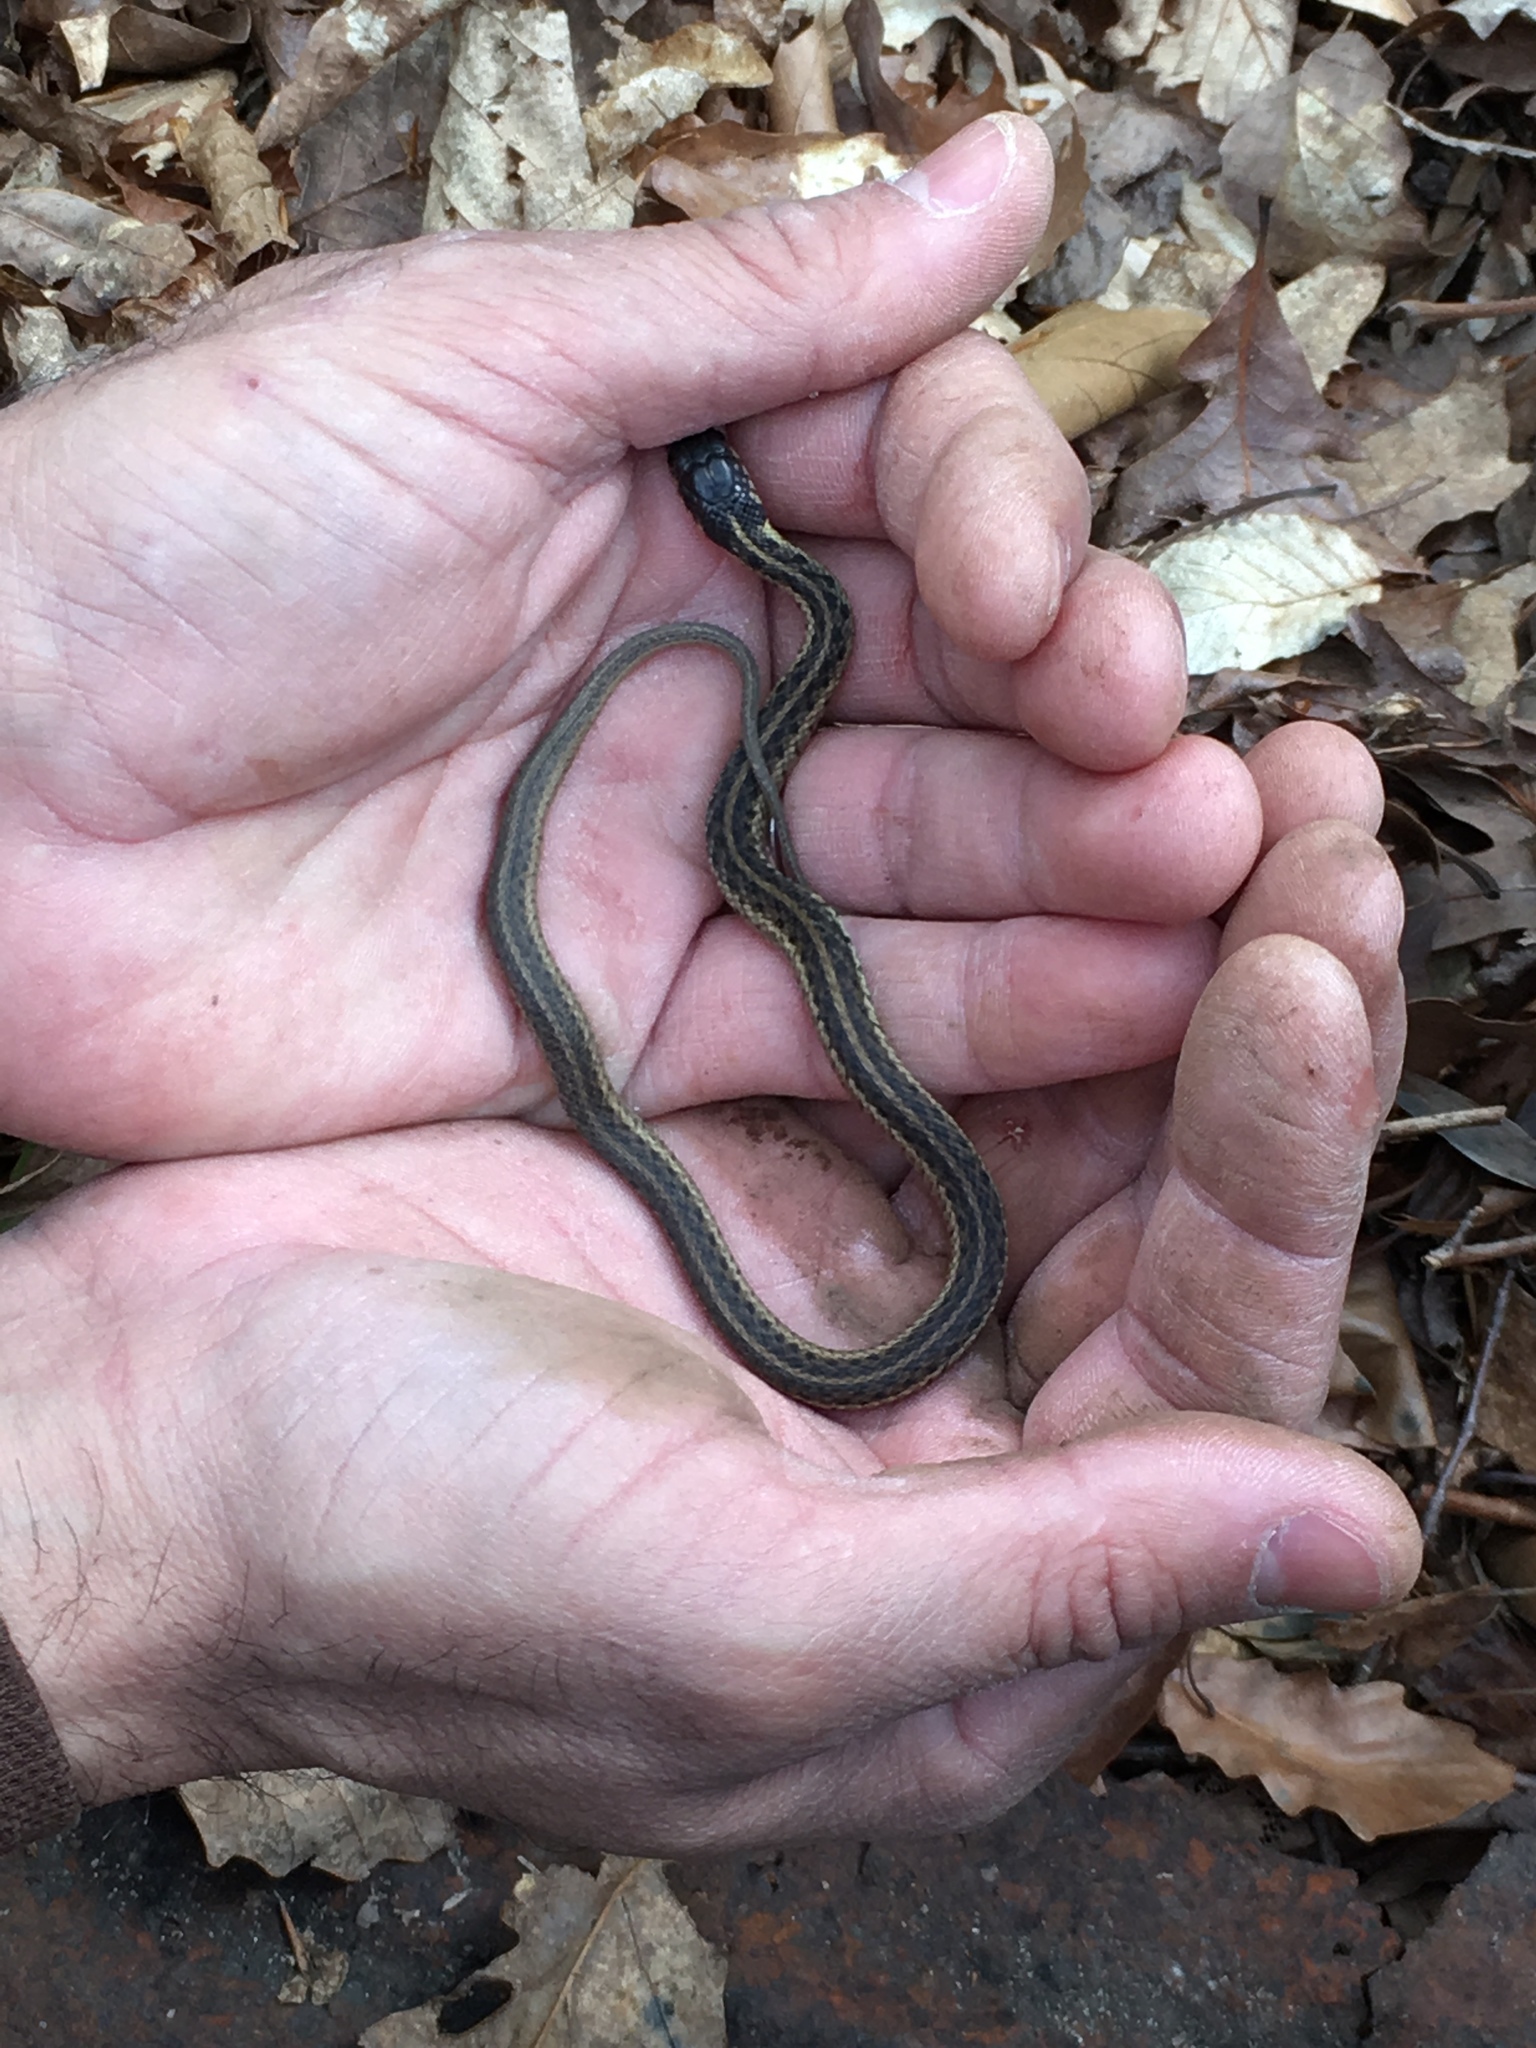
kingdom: Animalia
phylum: Chordata
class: Squamata
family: Colubridae
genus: Thamnophis
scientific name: Thamnophis sirtalis
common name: Common garter snake
